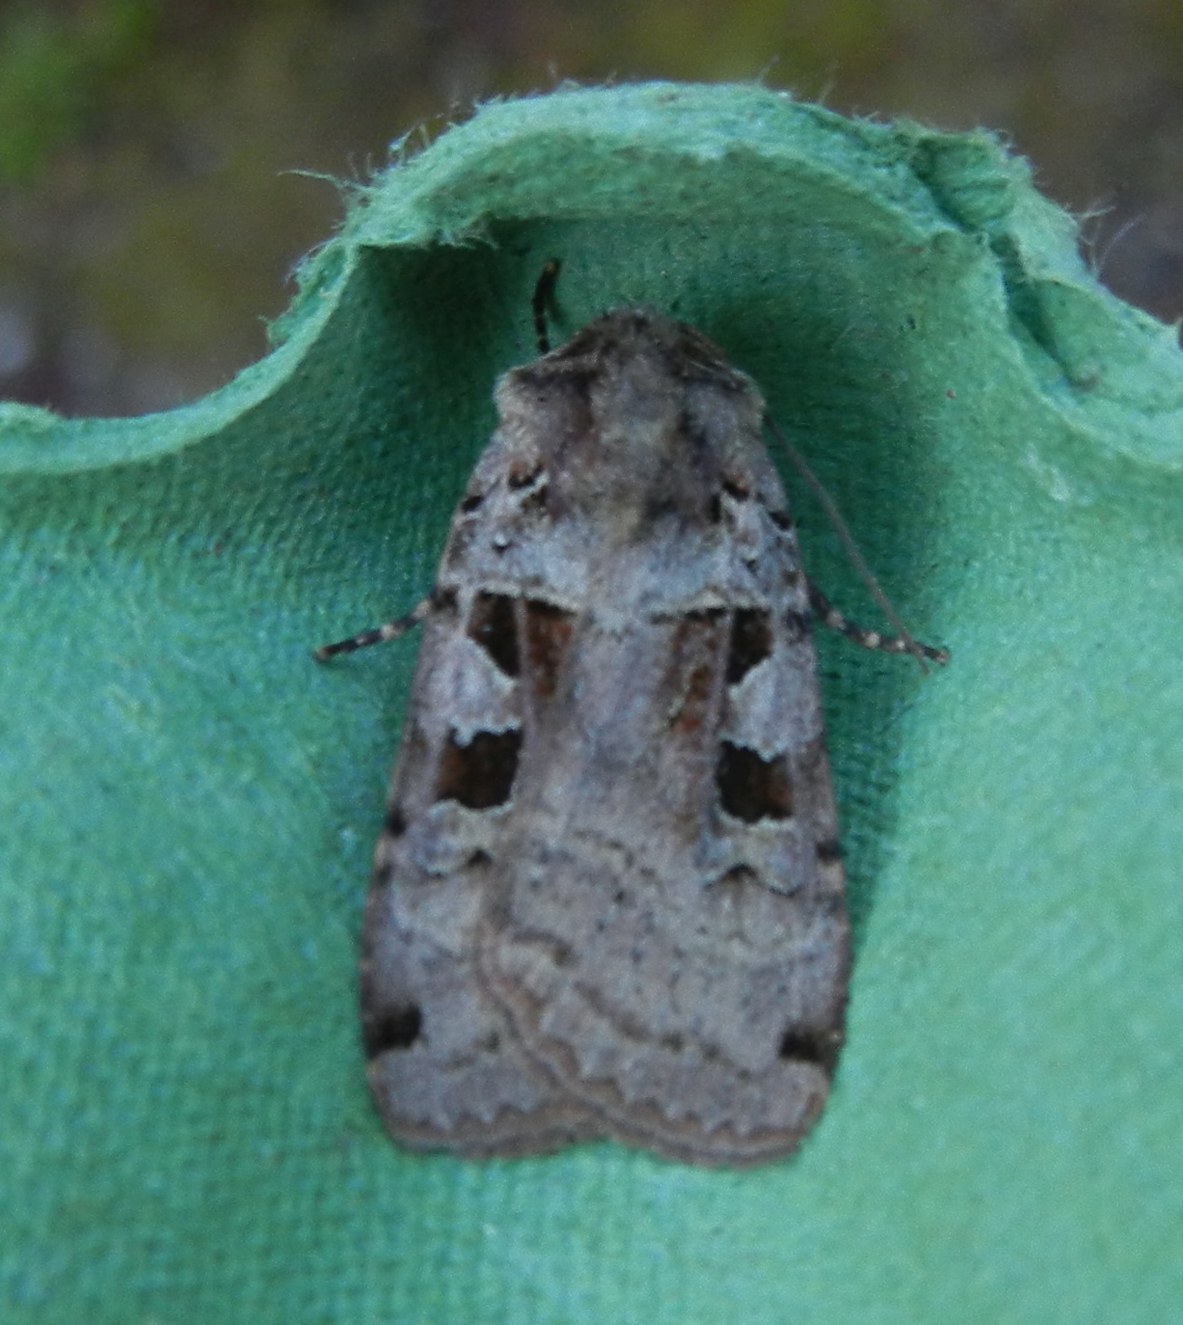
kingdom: Animalia
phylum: Arthropoda
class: Insecta
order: Lepidoptera
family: Noctuidae
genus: Xestia
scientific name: Xestia triangulum
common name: Double square-spot
